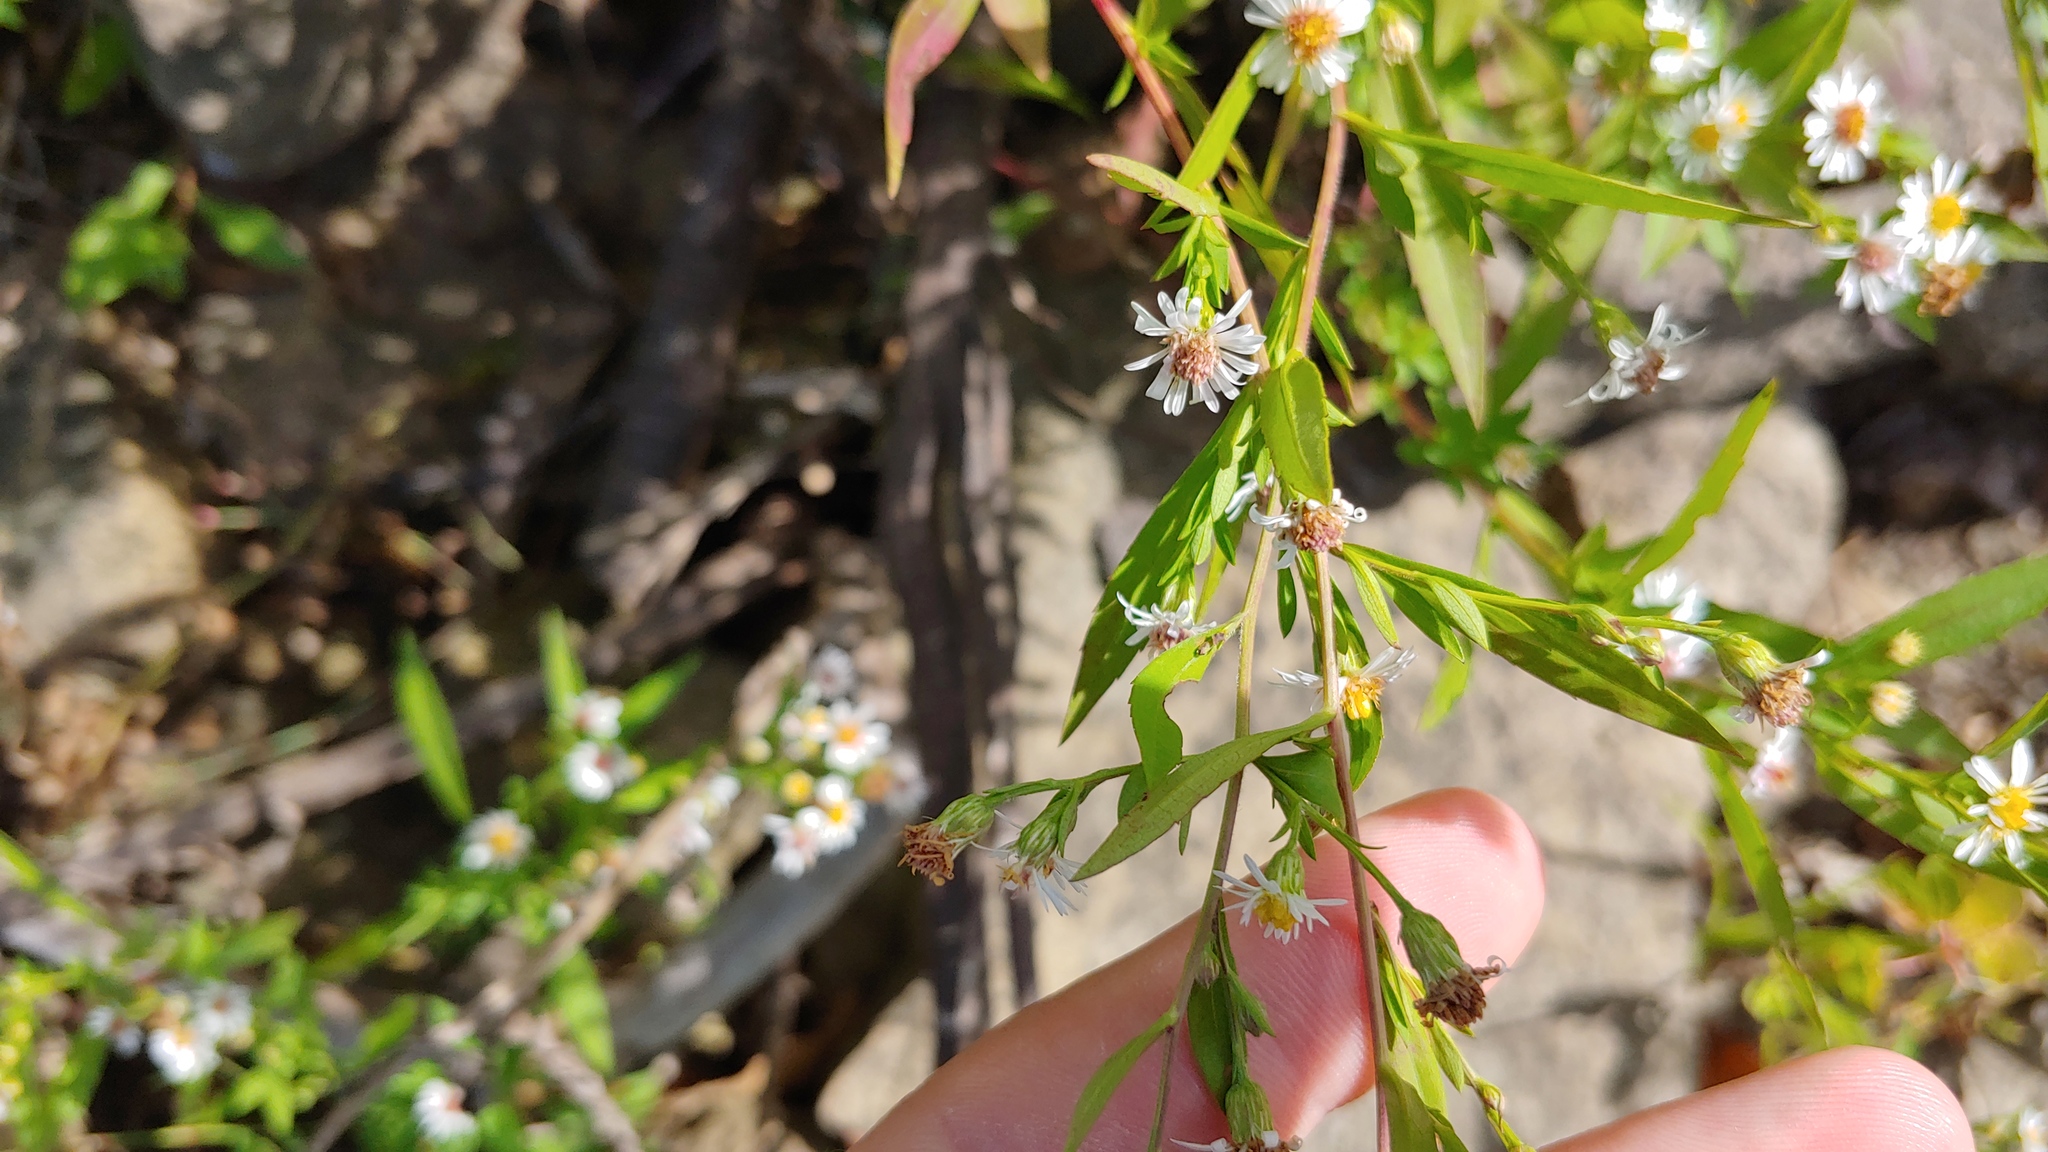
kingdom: Plantae
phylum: Tracheophyta
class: Magnoliopsida
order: Asterales
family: Asteraceae
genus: Symphyotrichum
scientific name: Symphyotrichum ontarionis
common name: Bottomland aster
